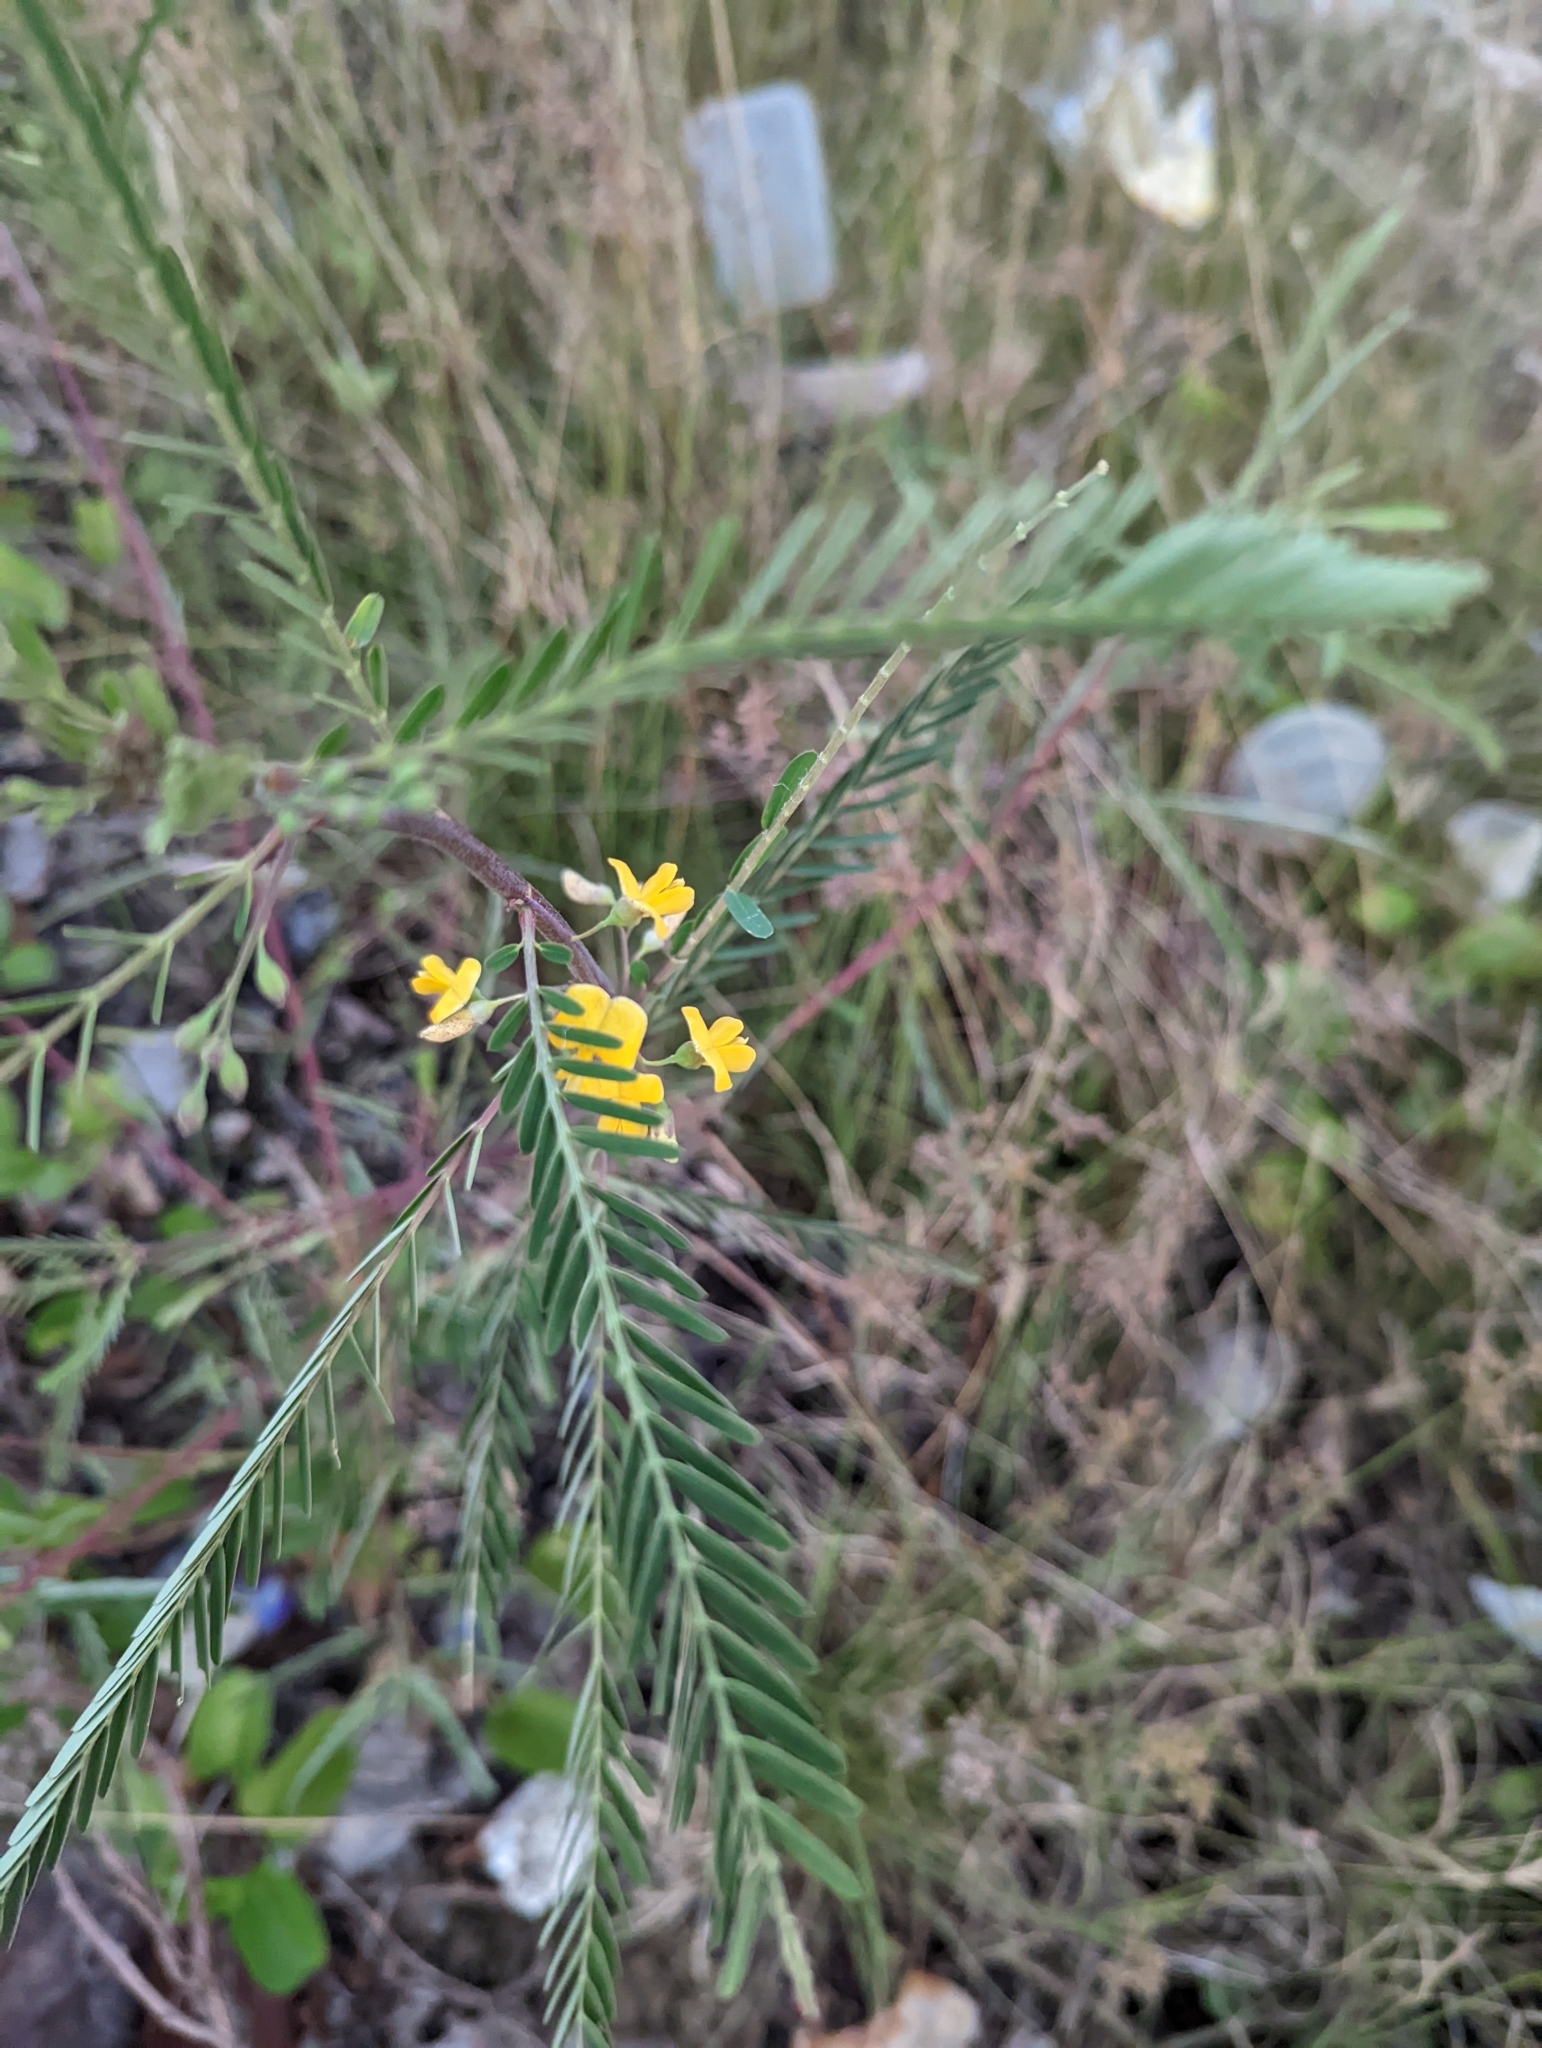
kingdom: Plantae
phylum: Tracheophyta
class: Magnoliopsida
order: Fabales
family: Fabaceae
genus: Sesbania
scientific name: Sesbania cannabina
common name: Canicha
